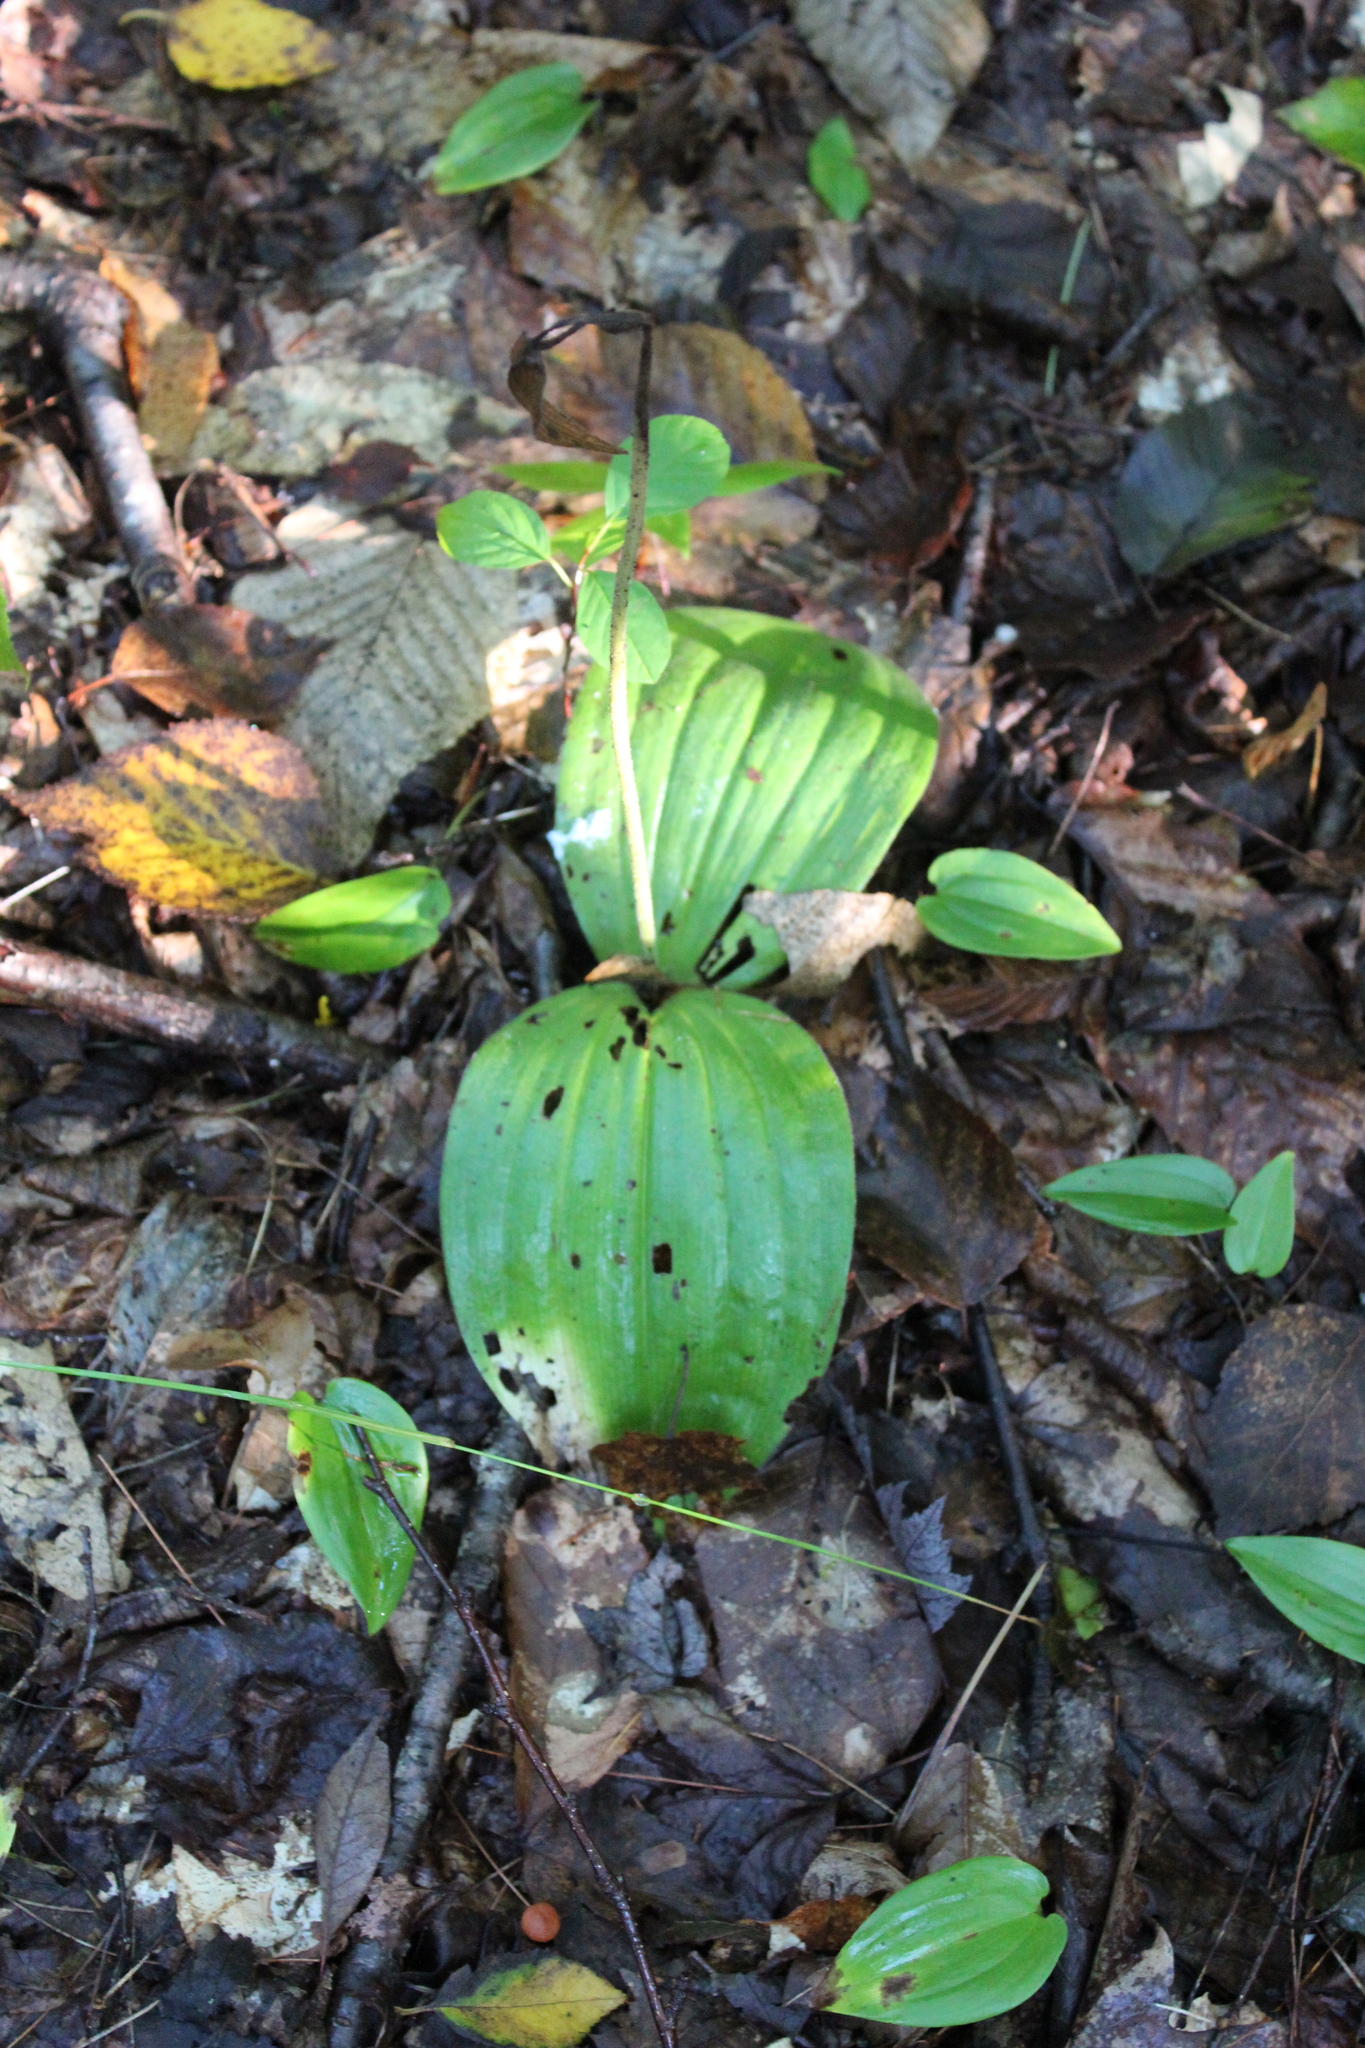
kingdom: Plantae
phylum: Tracheophyta
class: Liliopsida
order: Asparagales
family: Orchidaceae
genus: Cypripedium
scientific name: Cypripedium acaule
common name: Pink lady's-slipper
